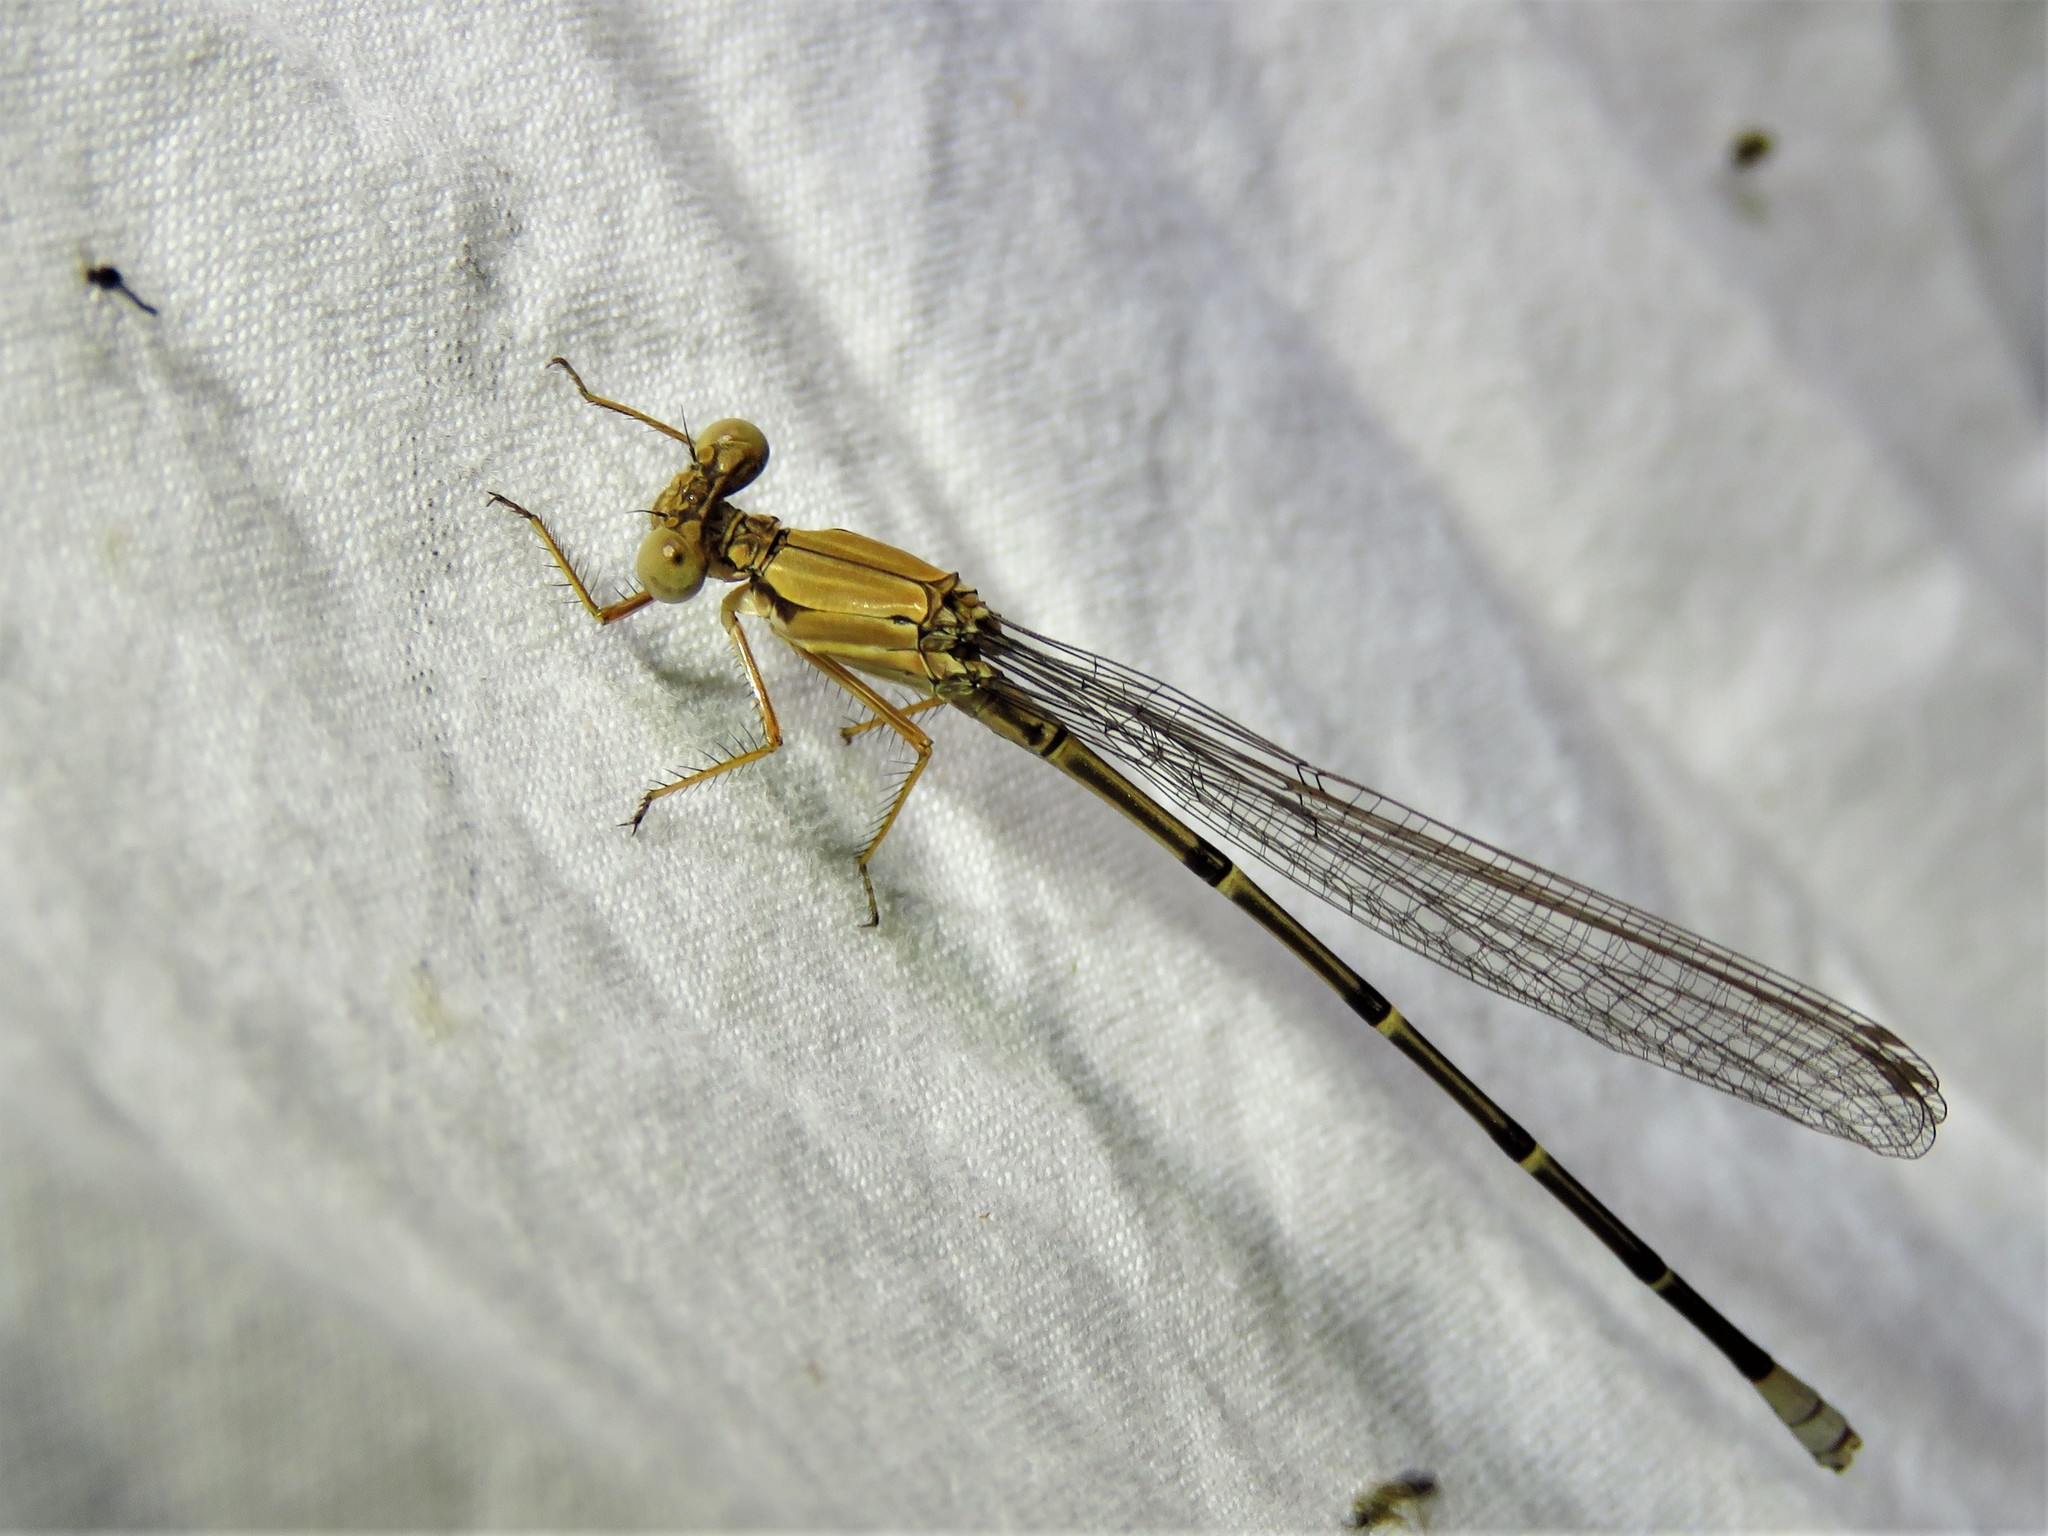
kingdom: Animalia
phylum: Arthropoda
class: Insecta
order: Odonata
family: Coenagrionidae
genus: Argia
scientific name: Argia apicalis
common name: Blue-fronted dancer
